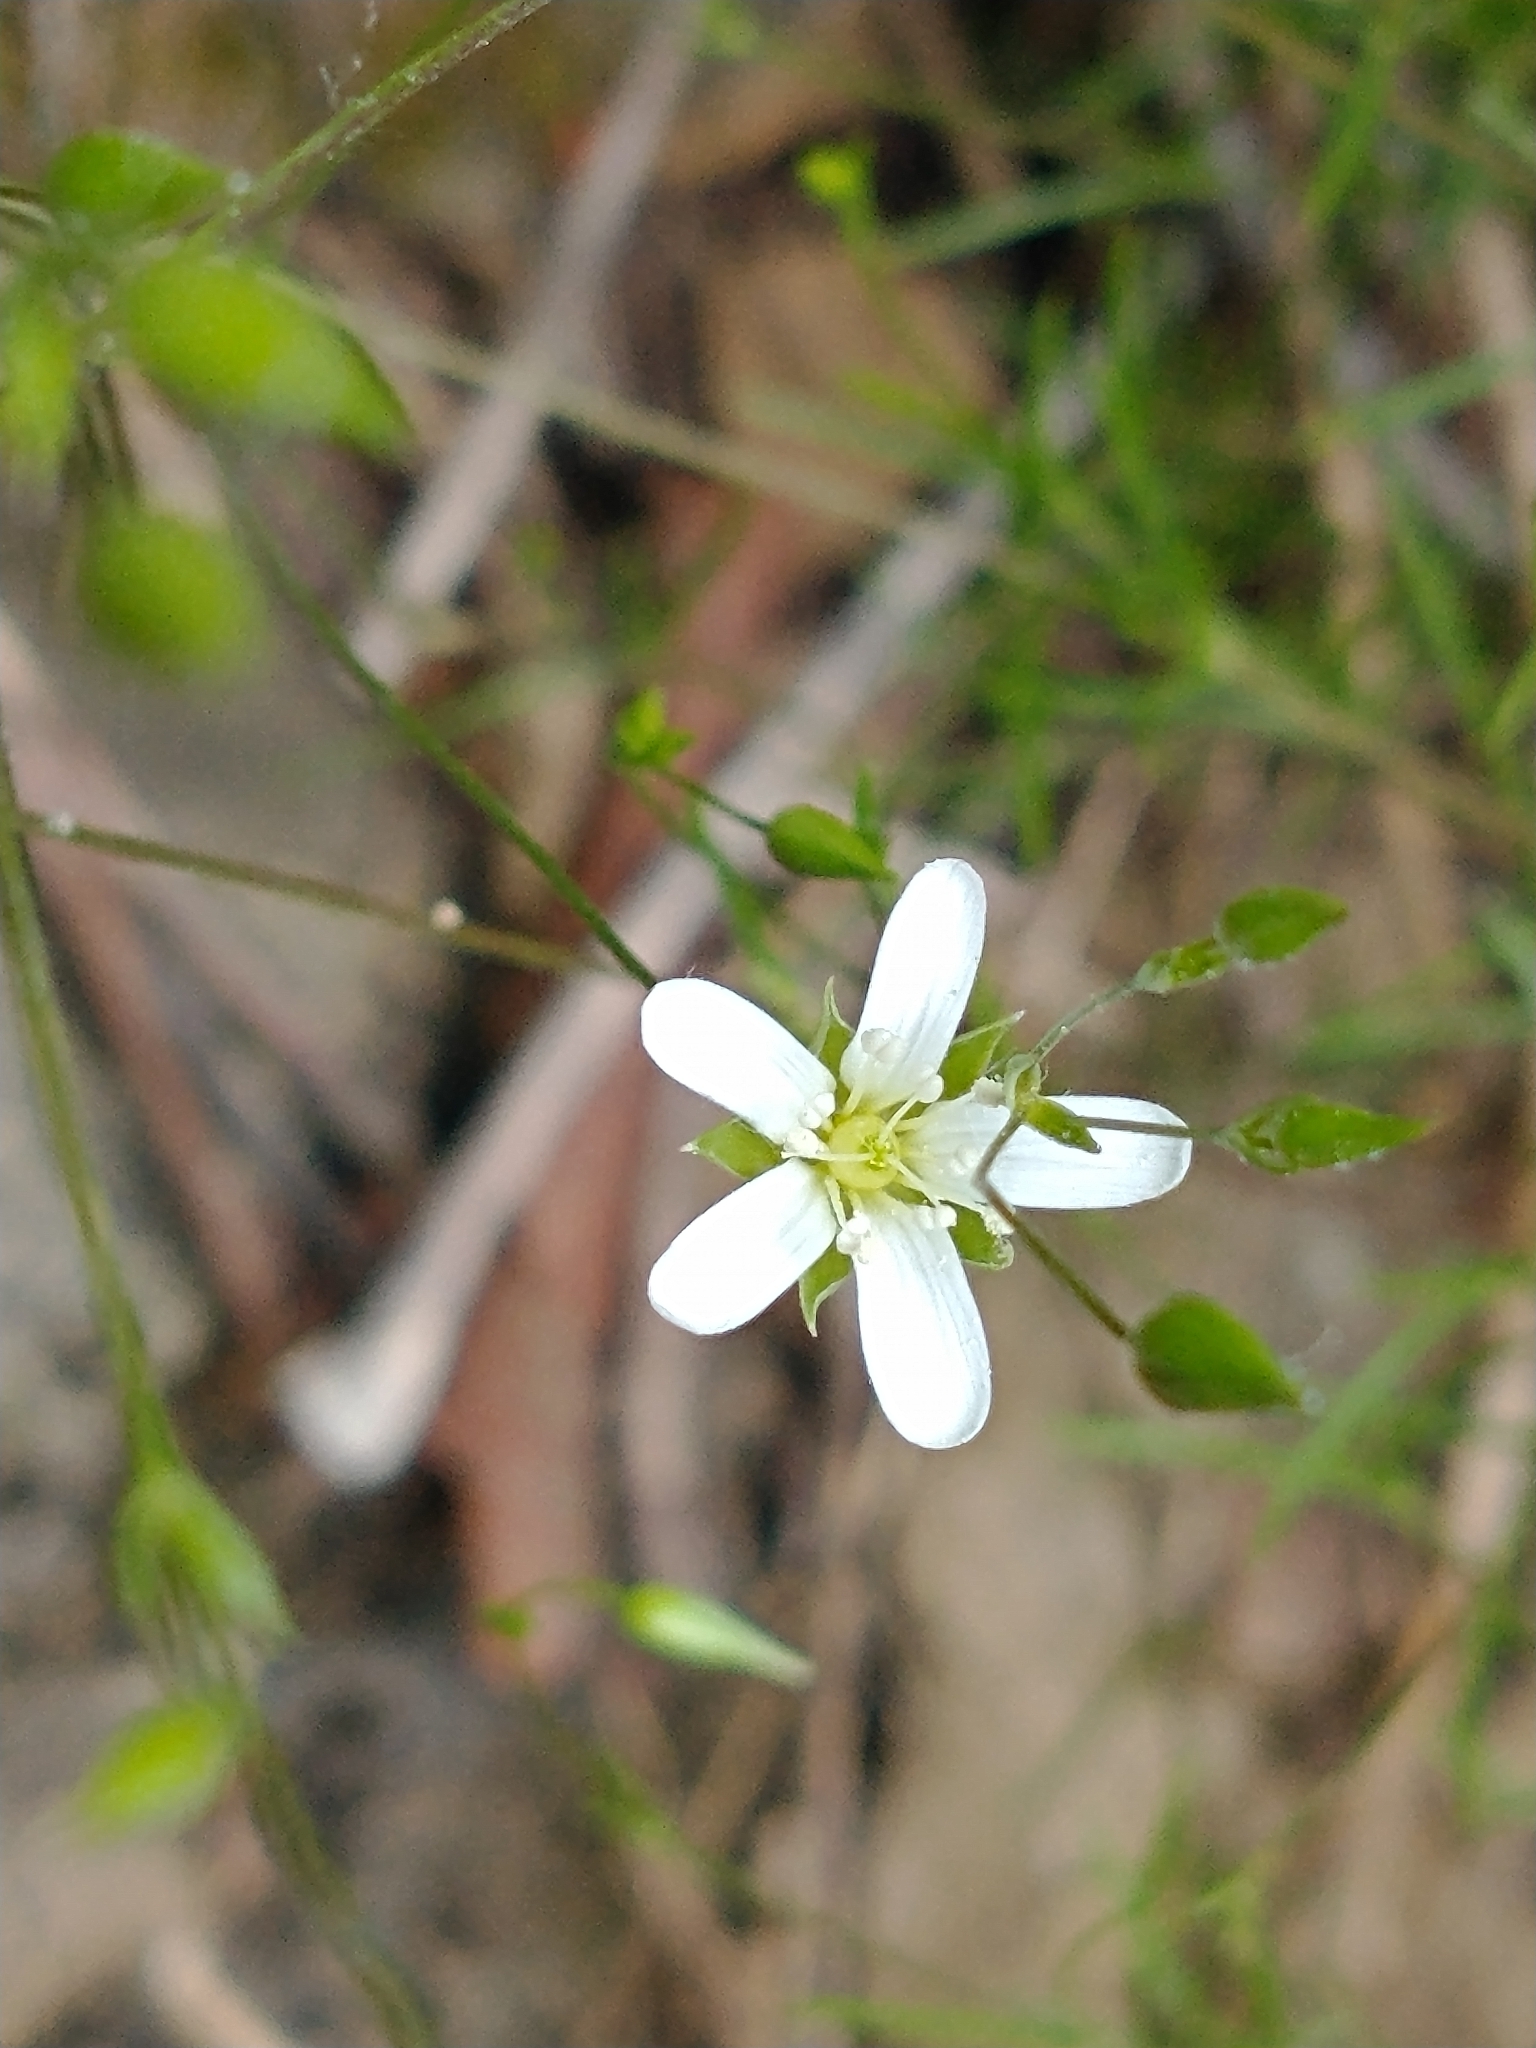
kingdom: Plantae
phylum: Tracheophyta
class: Magnoliopsida
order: Caryophyllales
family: Caryophyllaceae
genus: Sabulina
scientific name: Sabulina michauxii
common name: Michaux's stitchwort
